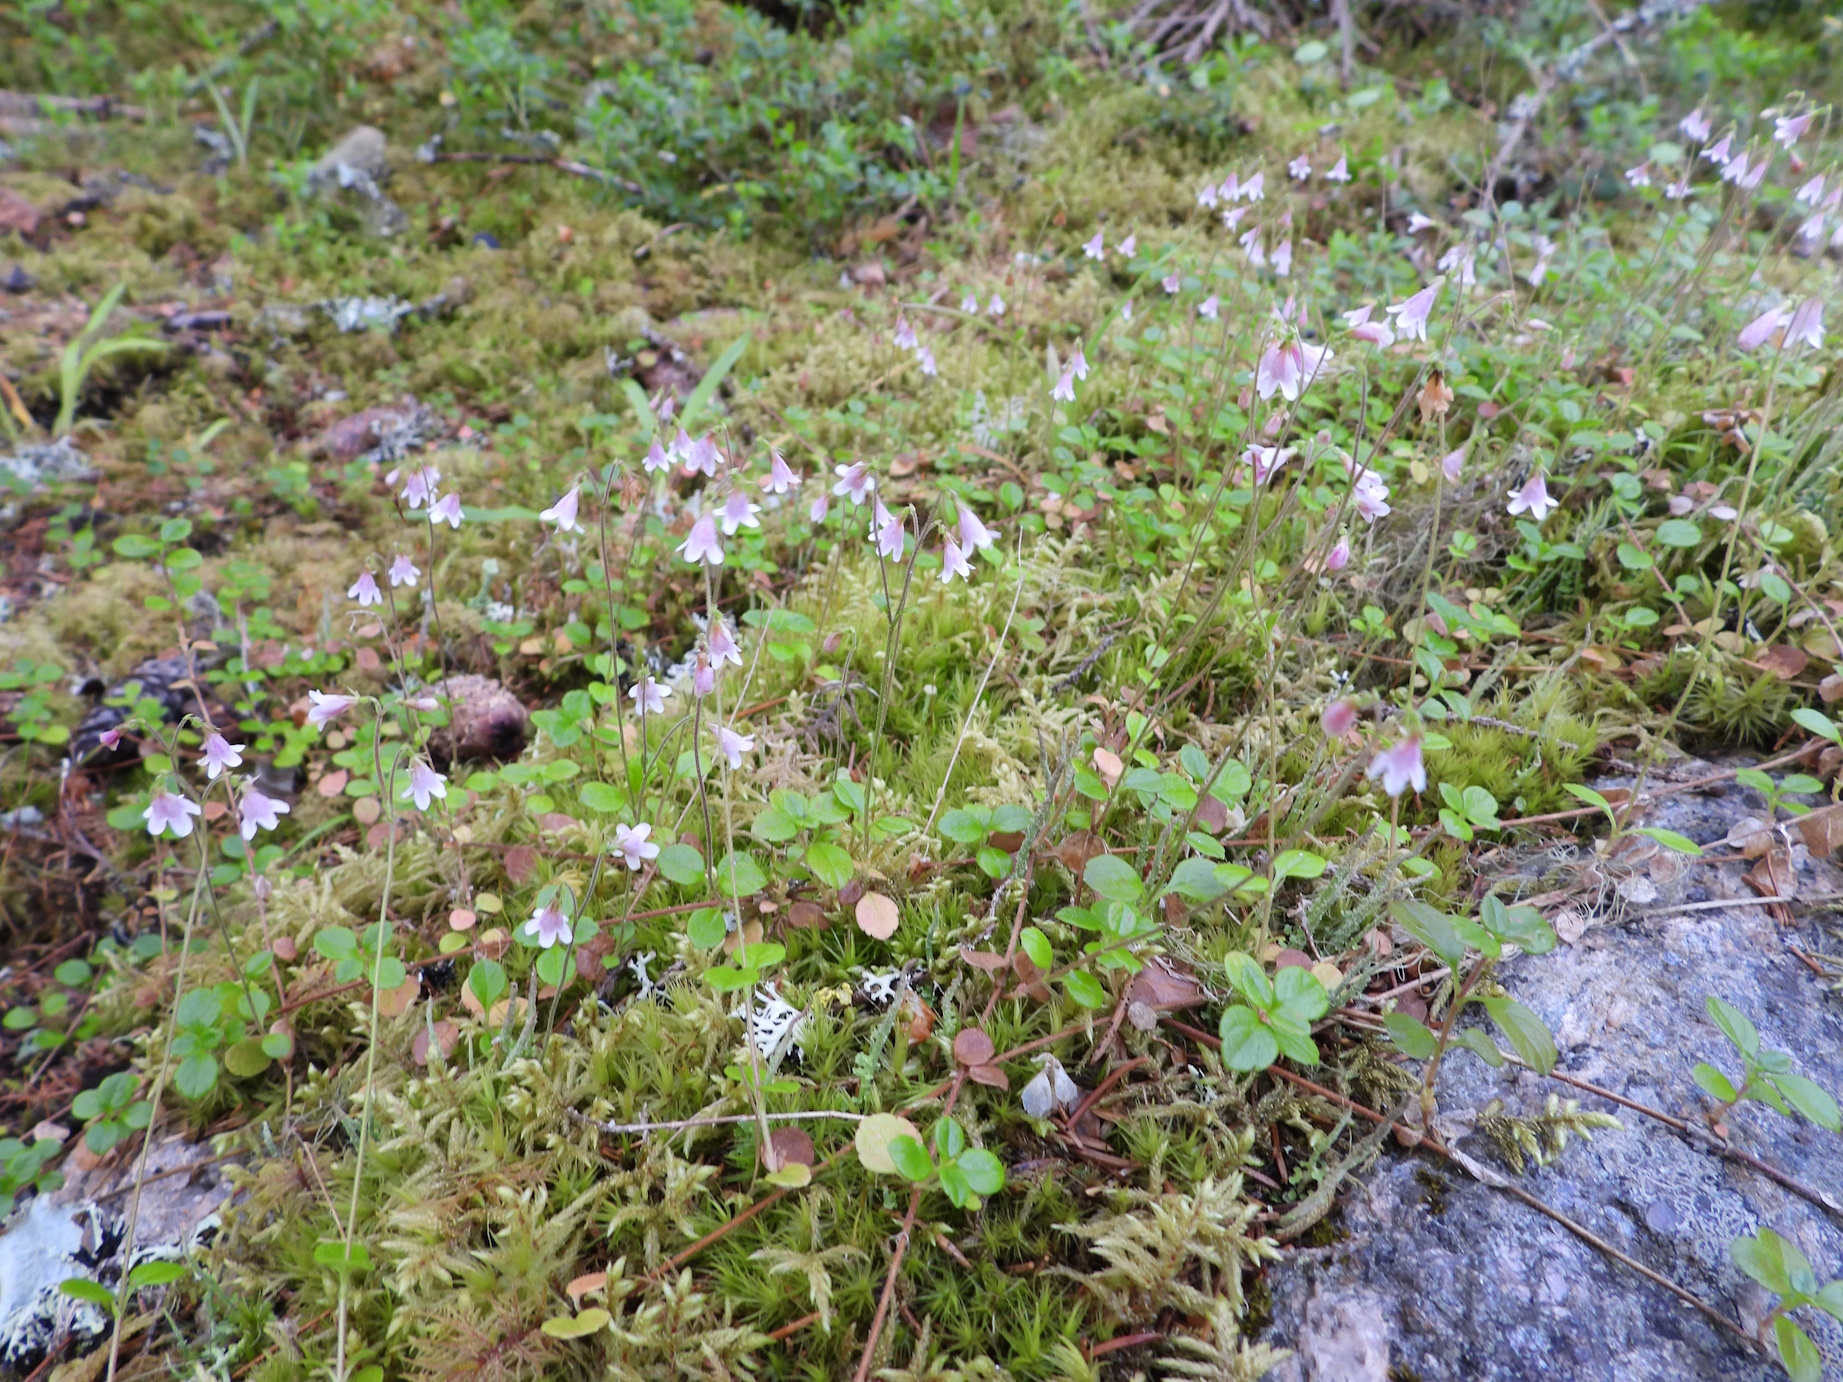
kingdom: Plantae
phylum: Tracheophyta
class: Magnoliopsida
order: Dipsacales
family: Caprifoliaceae
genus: Linnaea
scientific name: Linnaea borealis
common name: Twinflower
